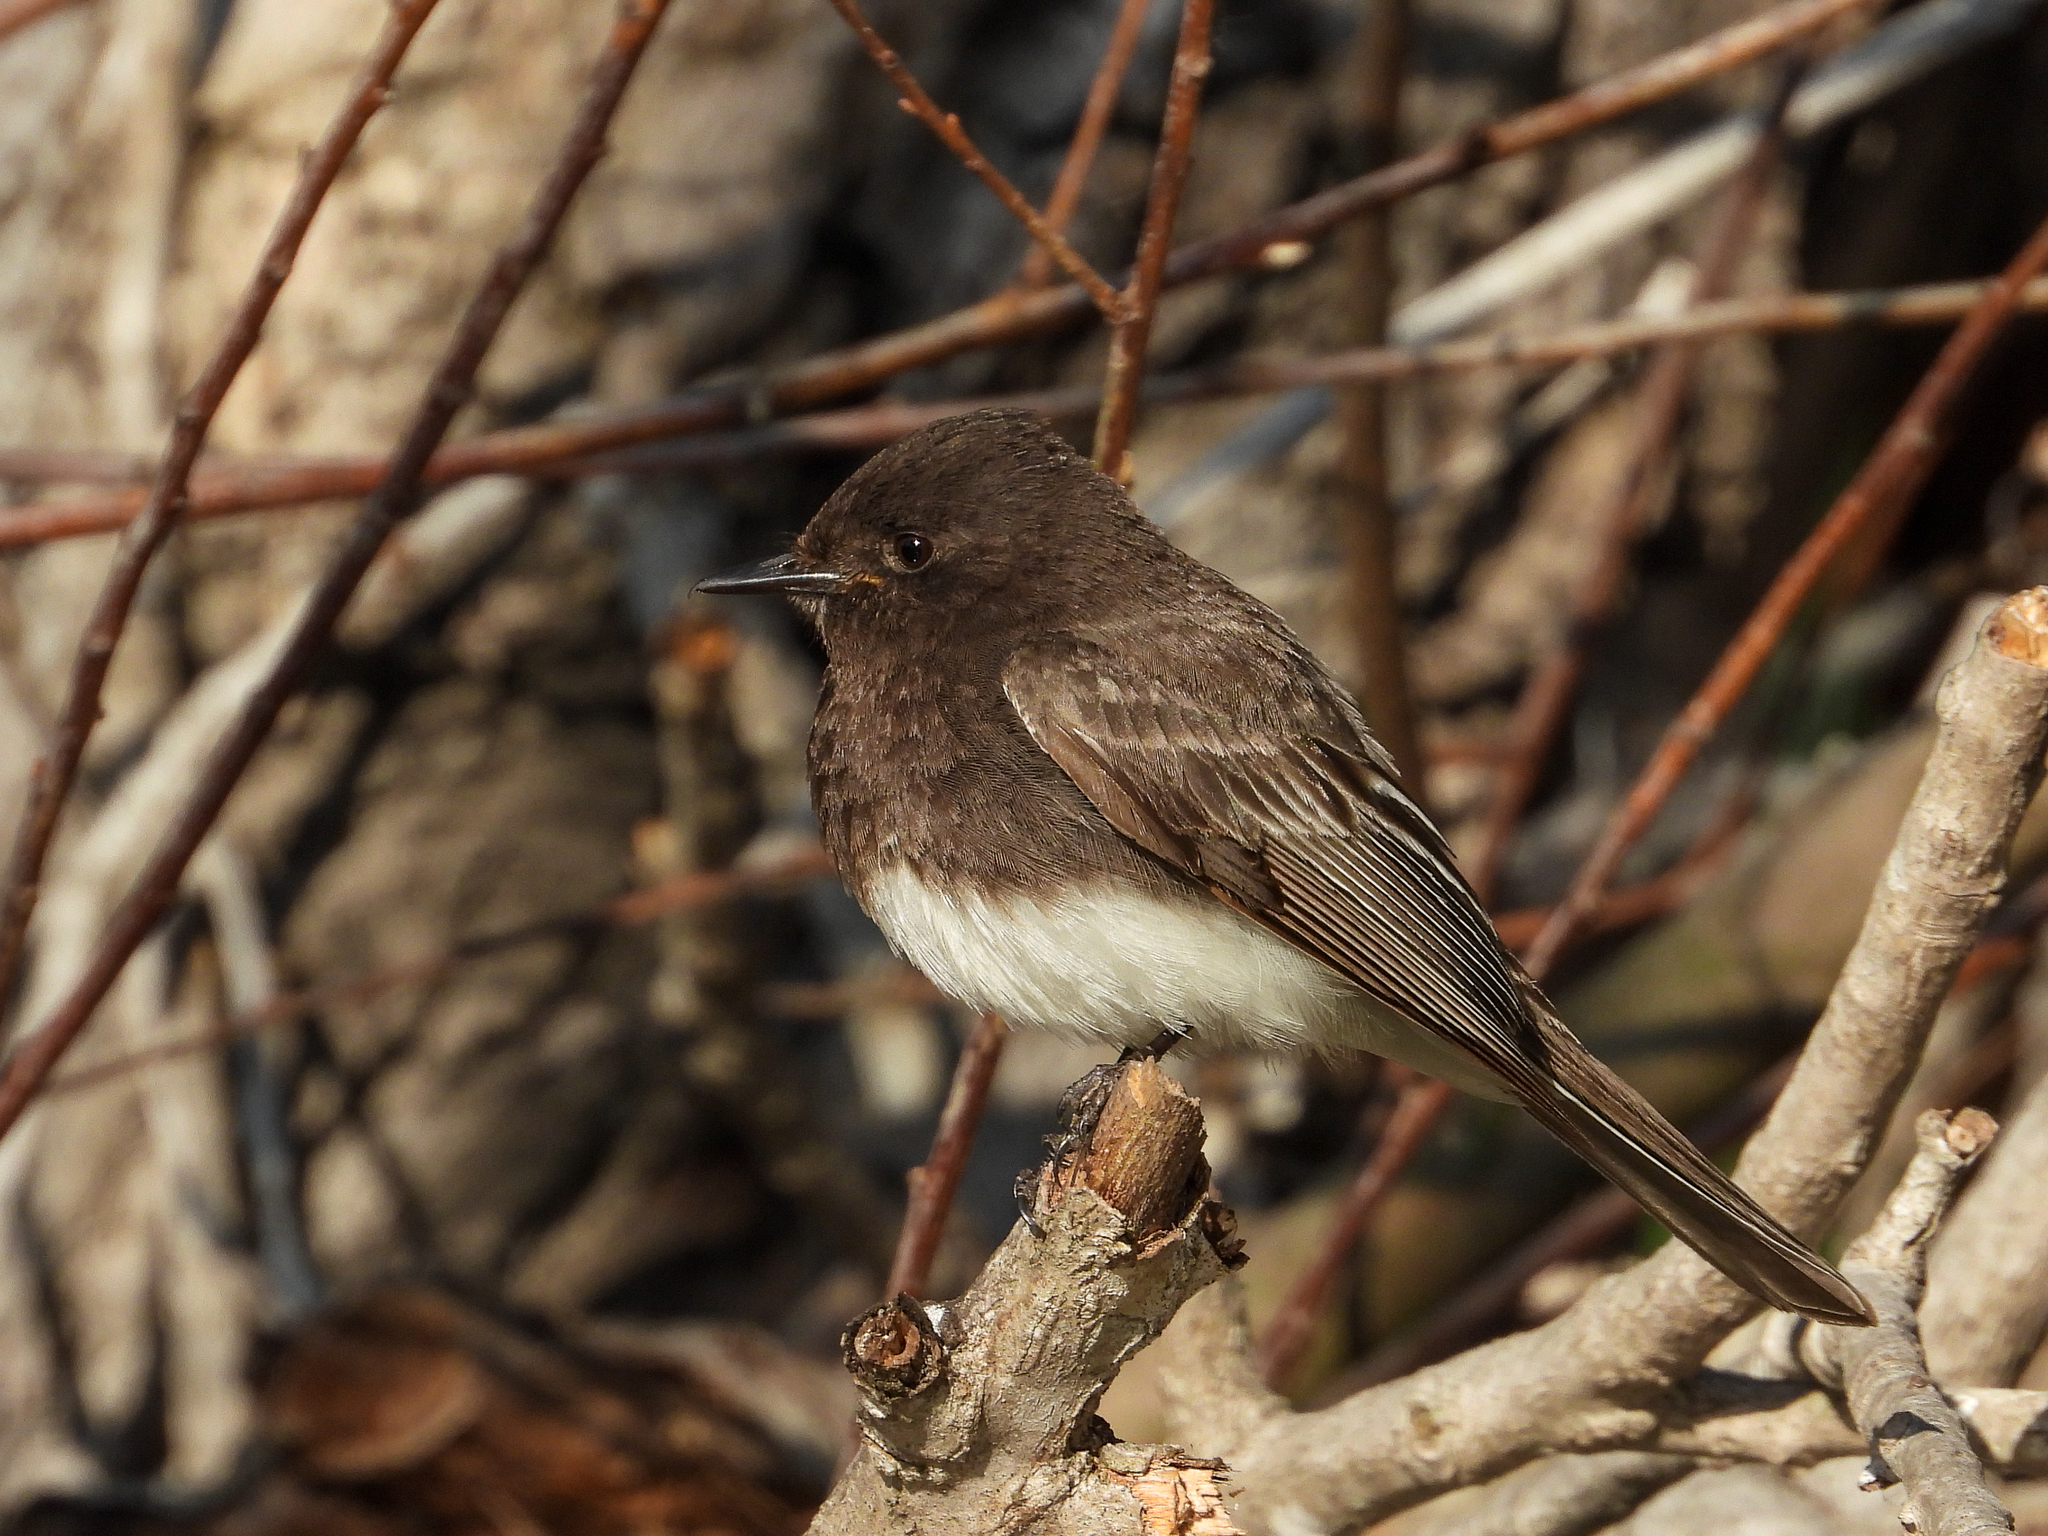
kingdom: Animalia
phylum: Chordata
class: Aves
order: Passeriformes
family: Tyrannidae
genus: Sayornis
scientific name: Sayornis nigricans
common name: Black phoebe
